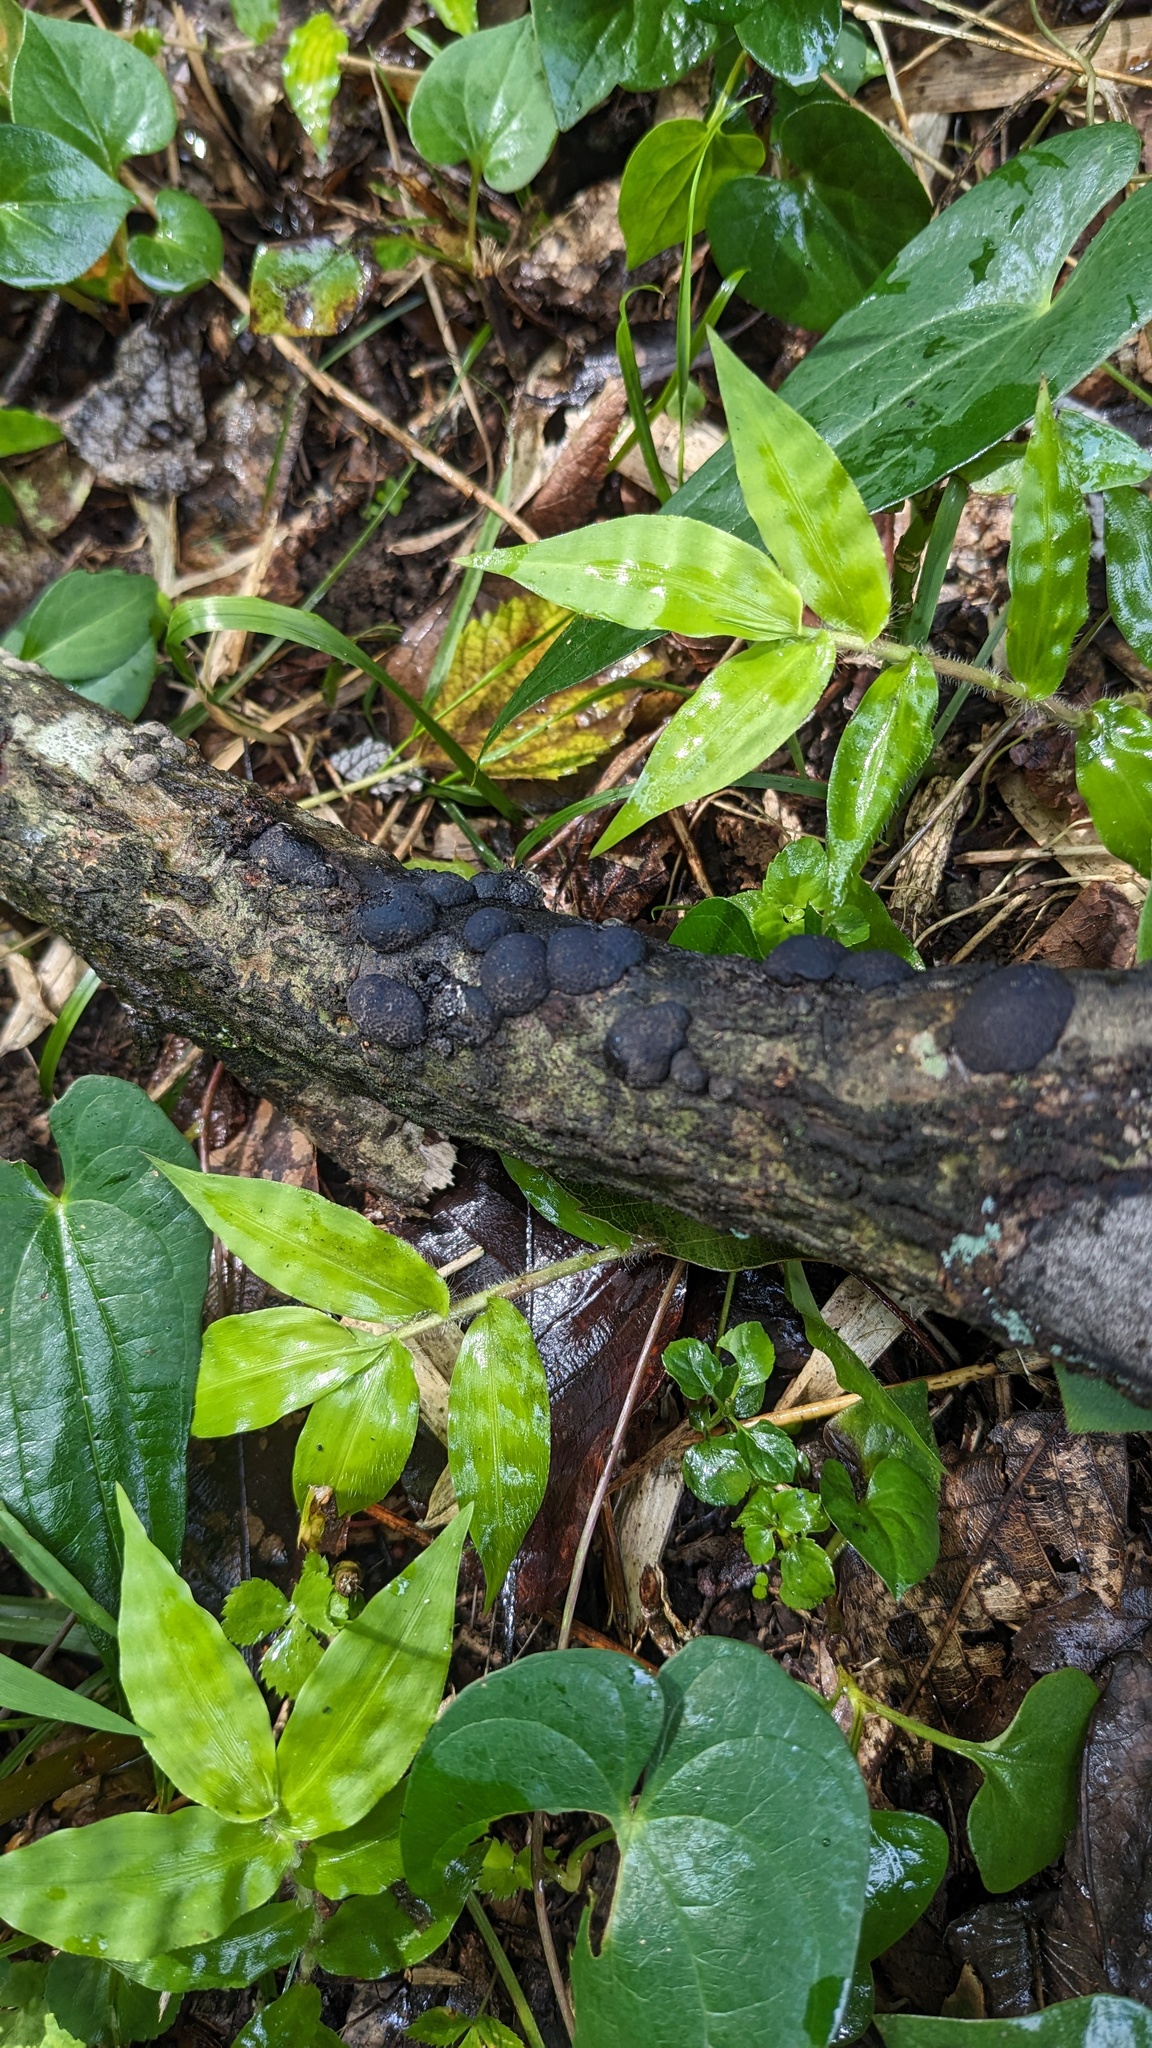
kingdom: Fungi
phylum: Ascomycota
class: Sordariomycetes
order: Xylariales
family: Hypoxylaceae
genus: Annulohypoxylon
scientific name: Annulohypoxylon truncatum
